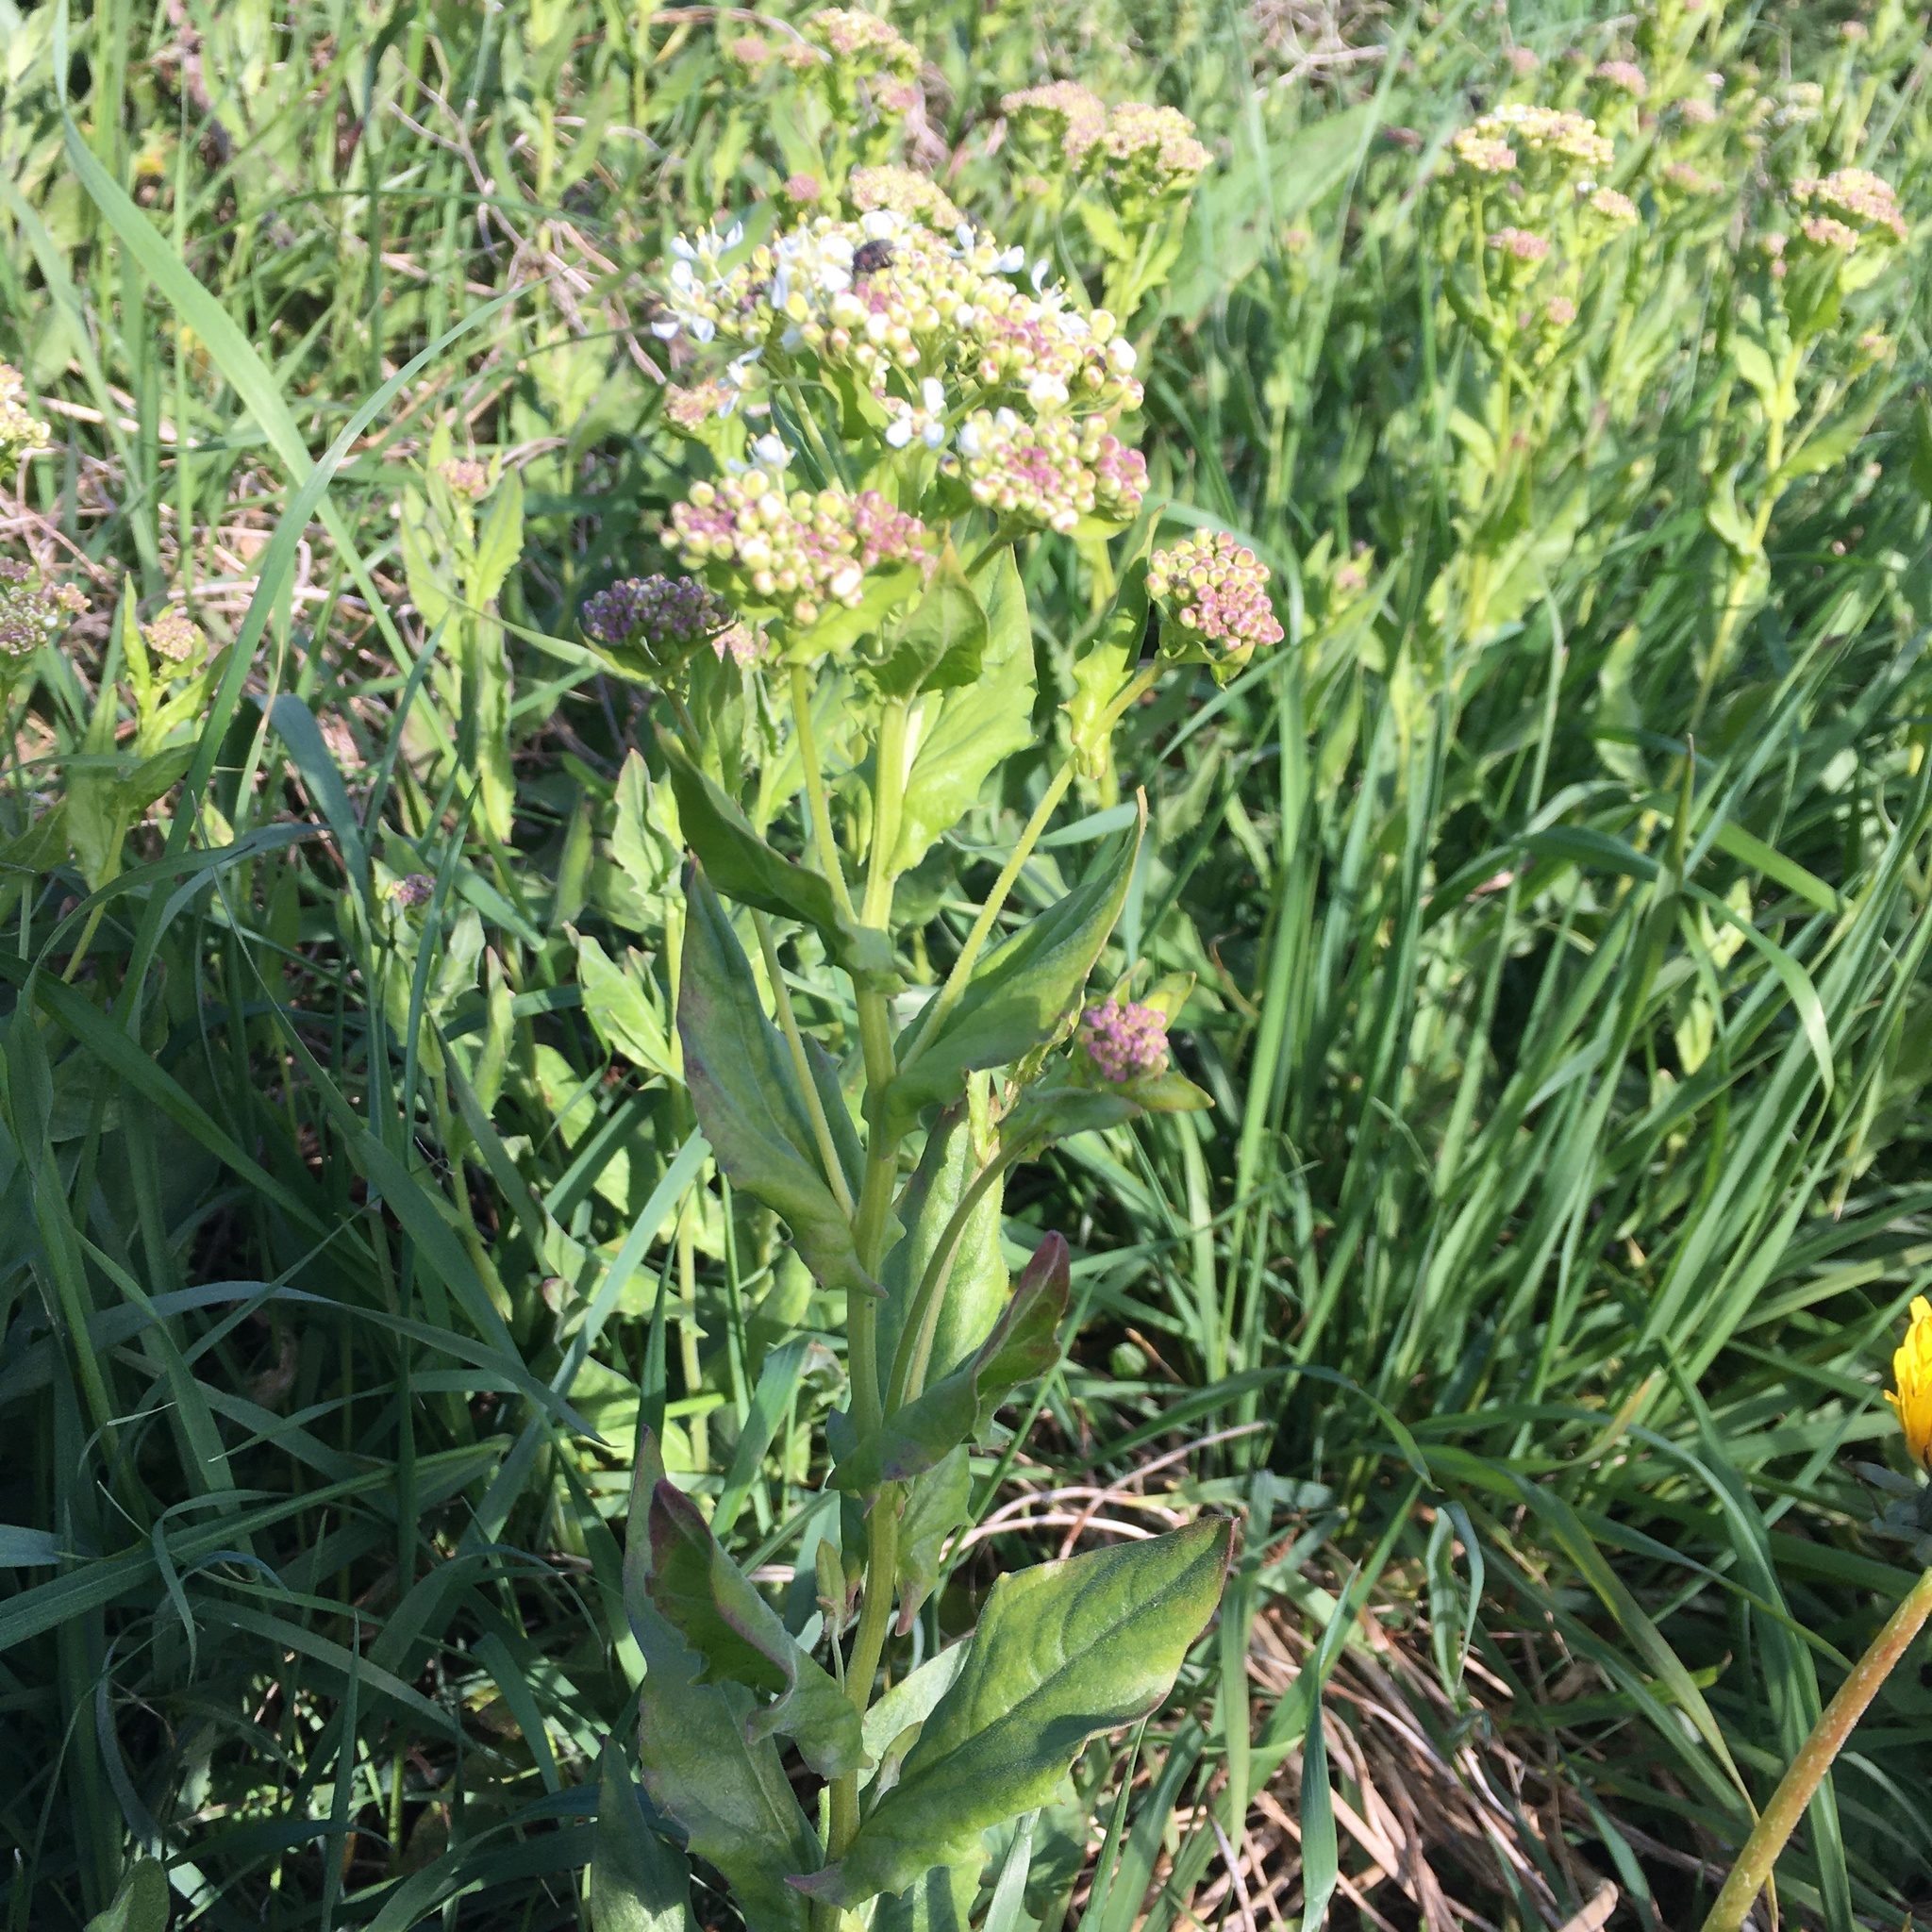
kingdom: Plantae
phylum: Tracheophyta
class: Magnoliopsida
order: Brassicales
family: Brassicaceae
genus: Lepidium
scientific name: Lepidium draba
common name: Hoary cress
